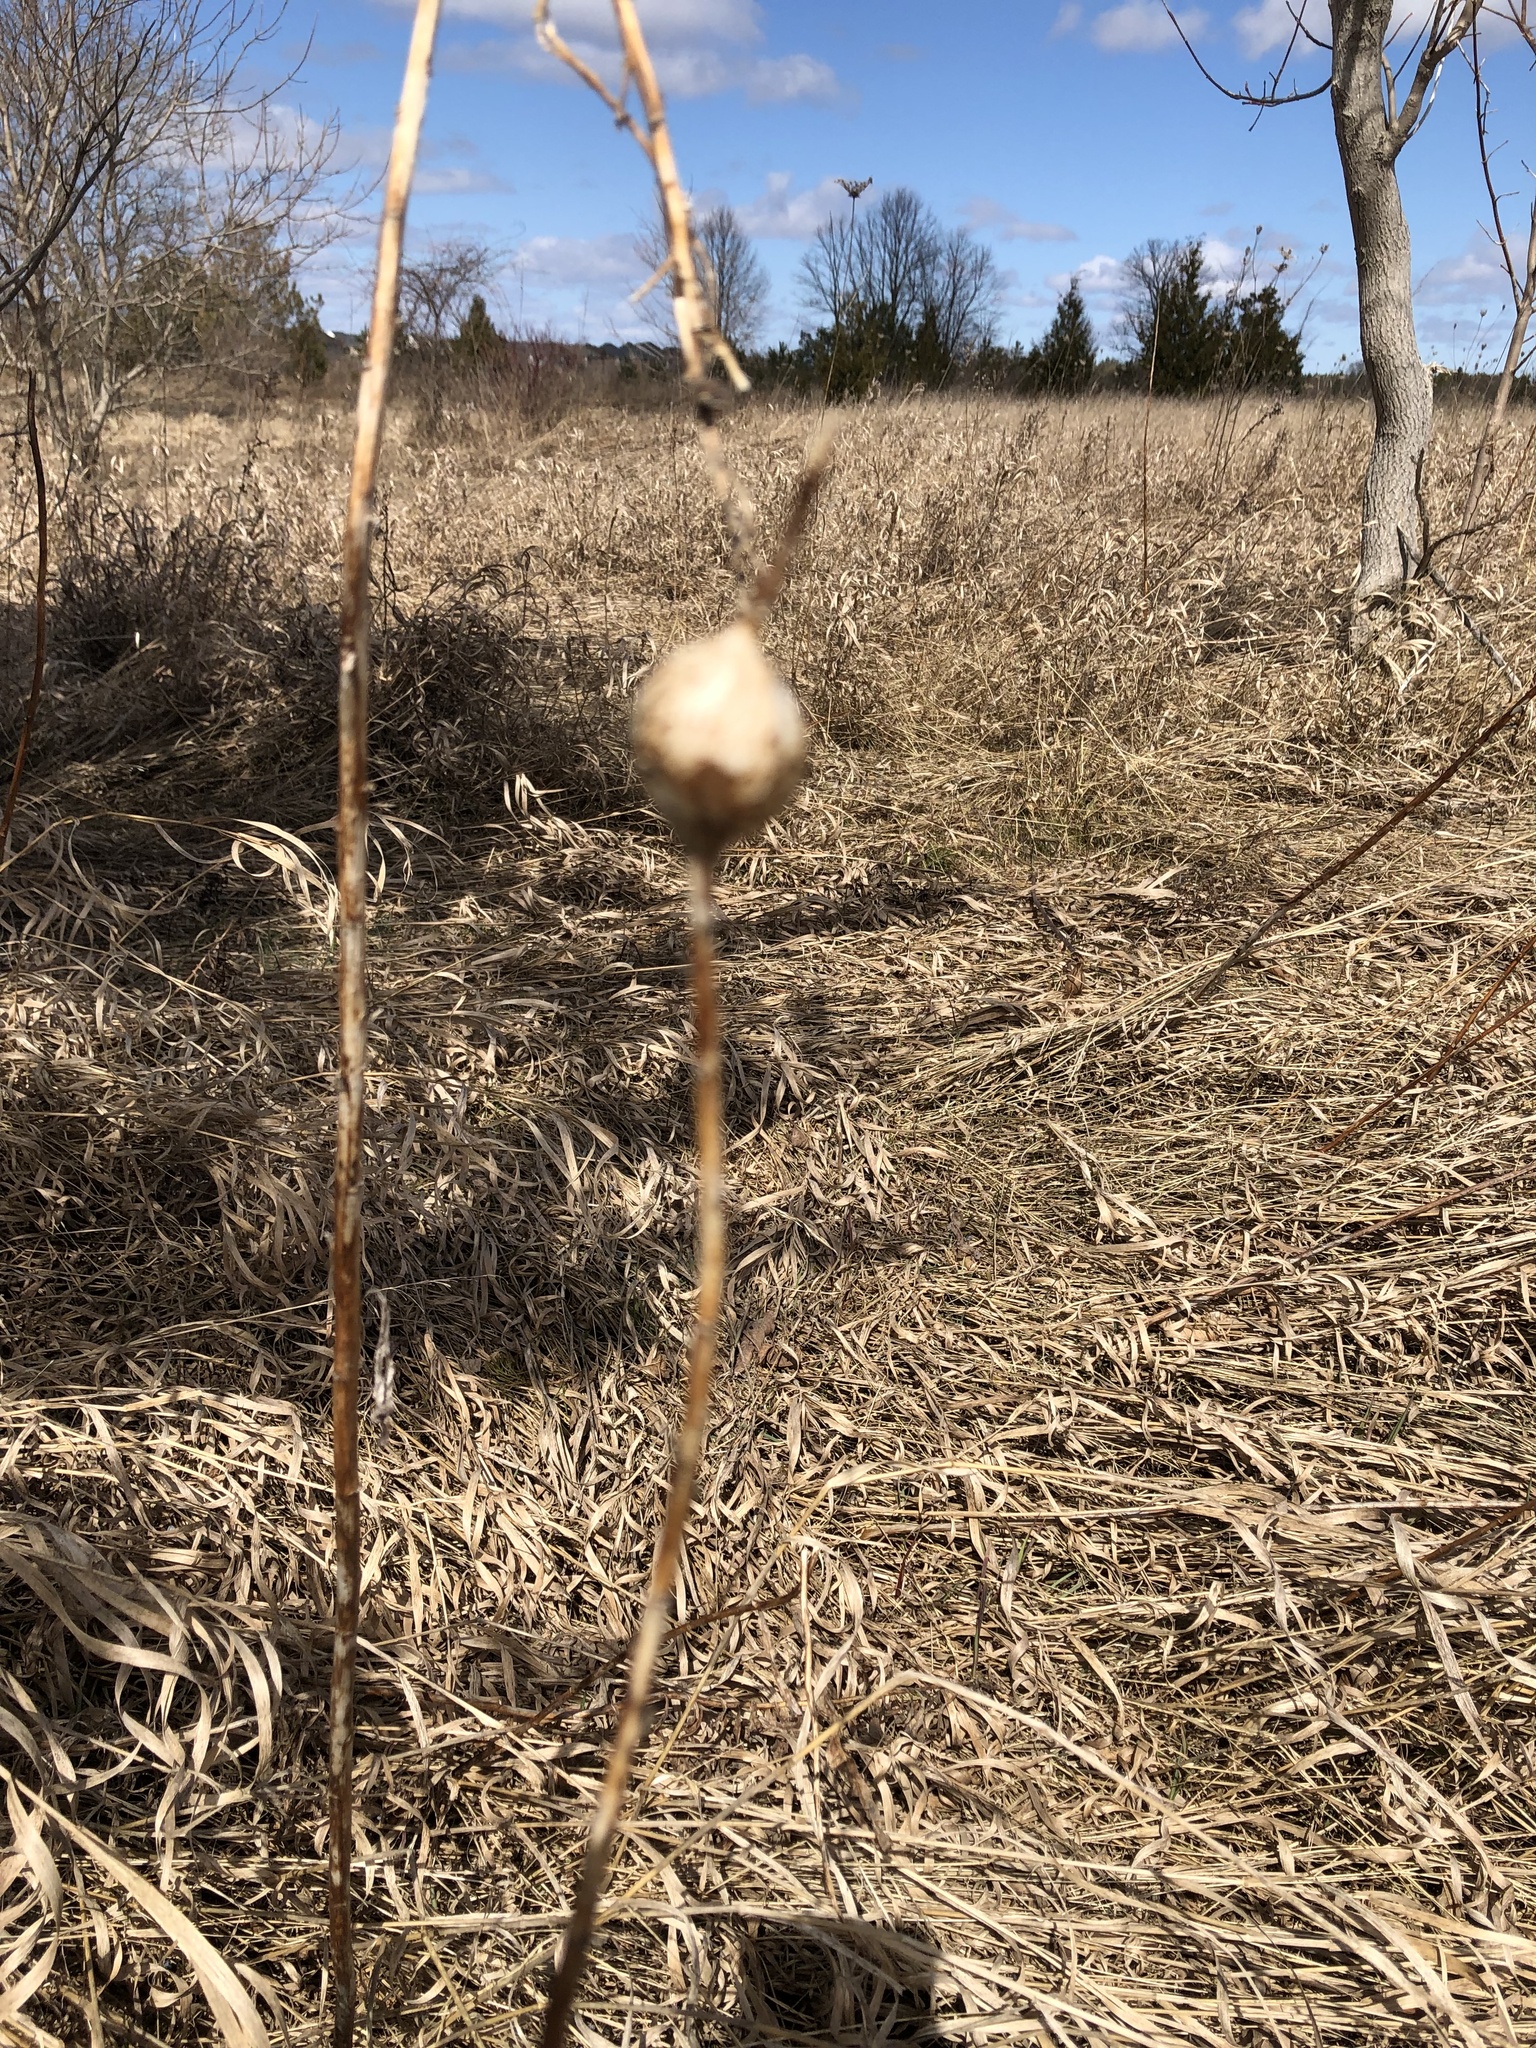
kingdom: Animalia
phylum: Arthropoda
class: Insecta
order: Diptera
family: Tephritidae
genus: Eurosta
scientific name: Eurosta solidaginis
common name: Goldenrod gall fly
